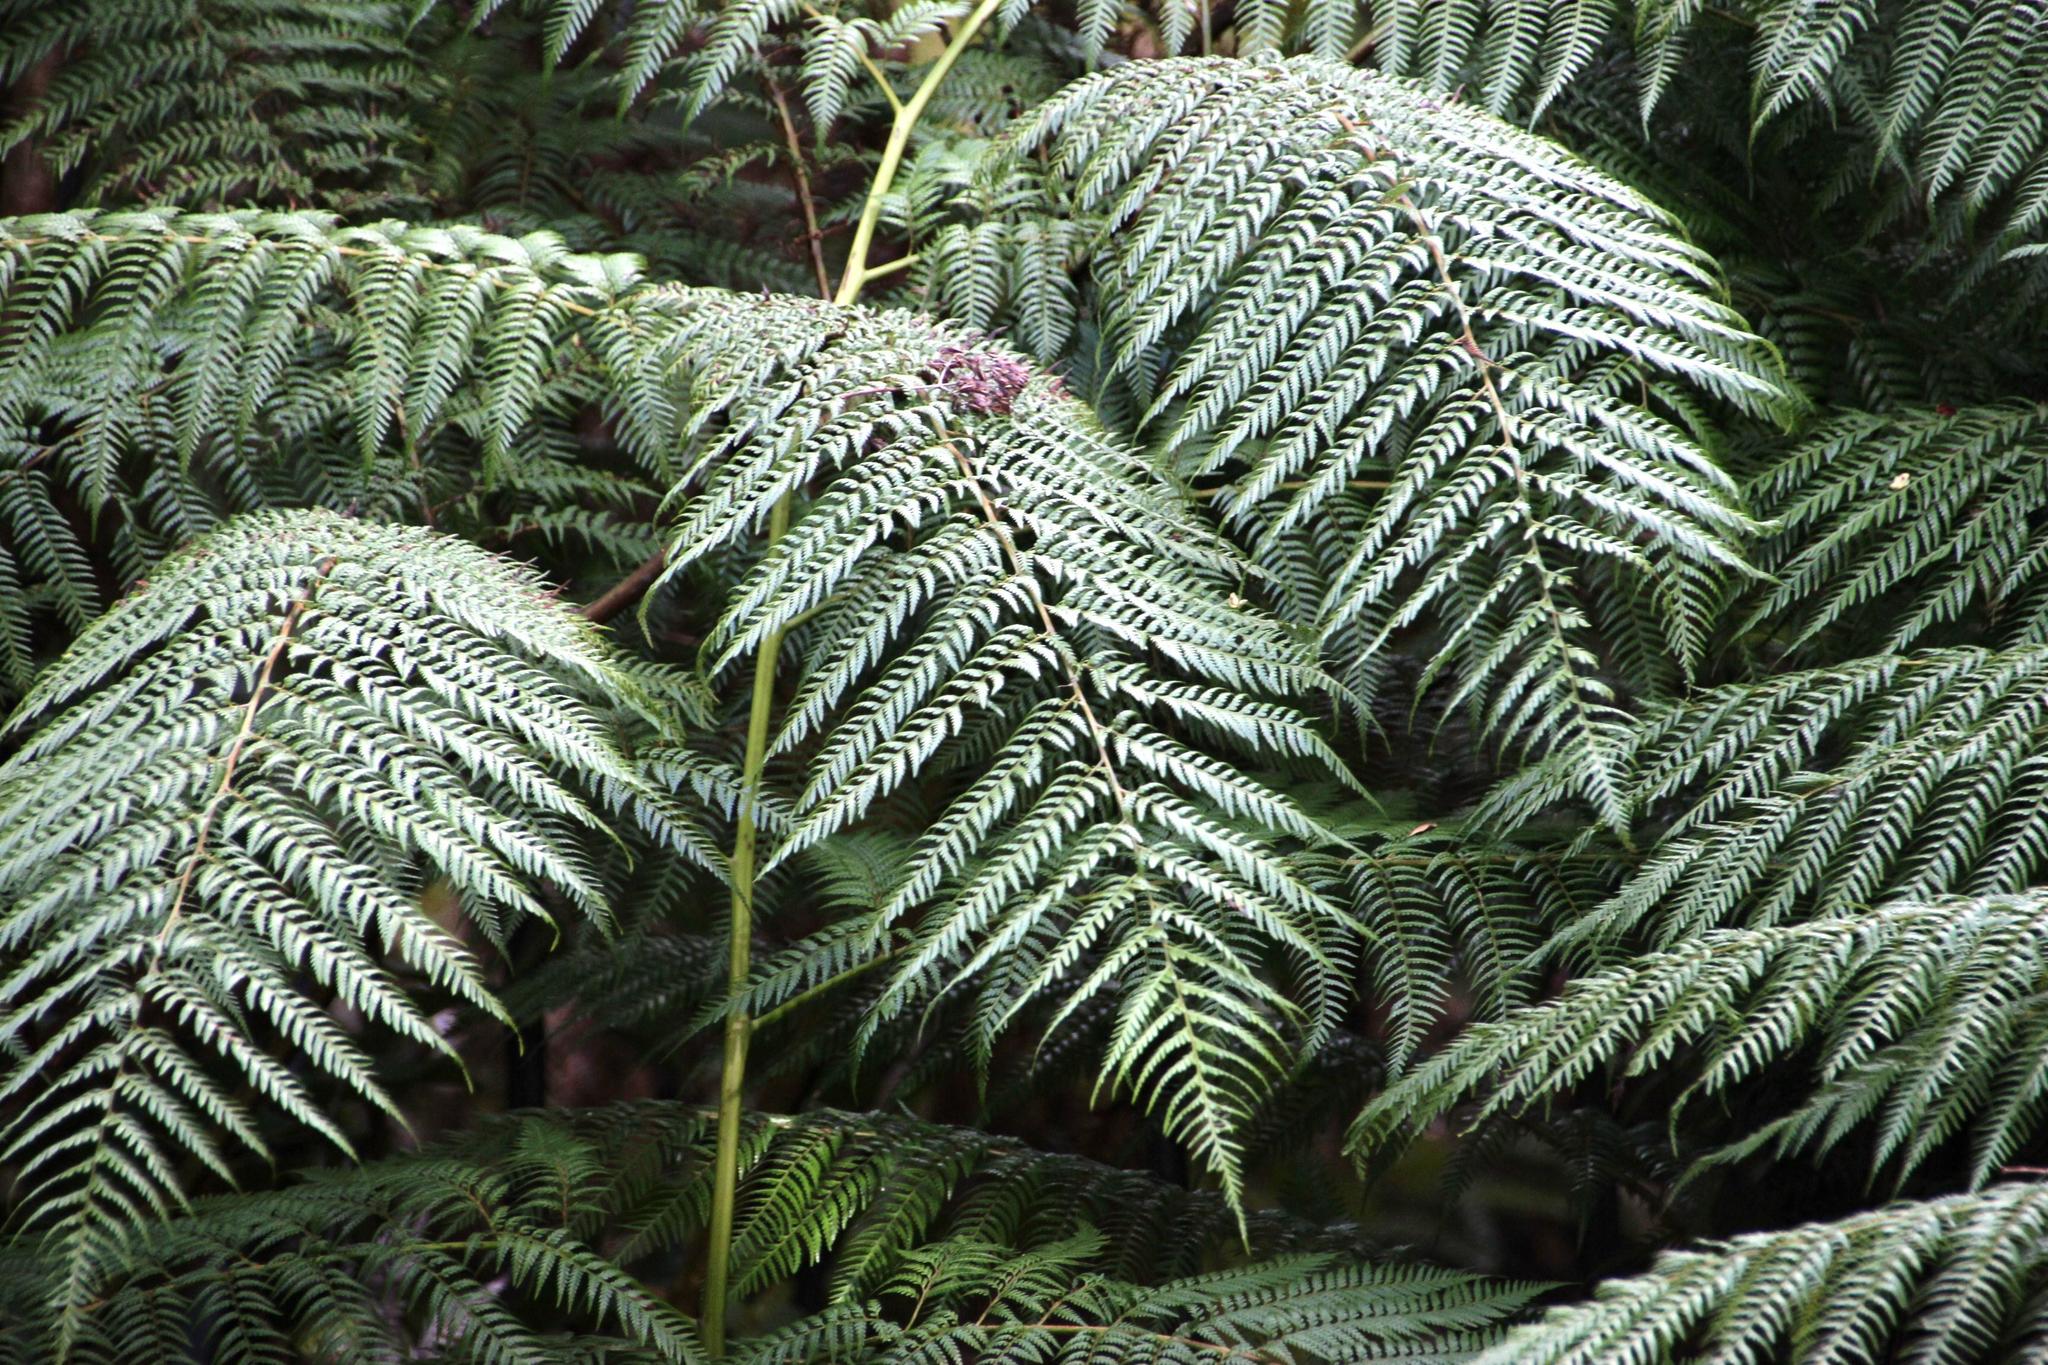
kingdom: Plantae
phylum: Tracheophyta
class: Polypodiopsida
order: Cyatheales
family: Dicksoniaceae
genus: Lophosoria
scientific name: Lophosoria quadripinnata
